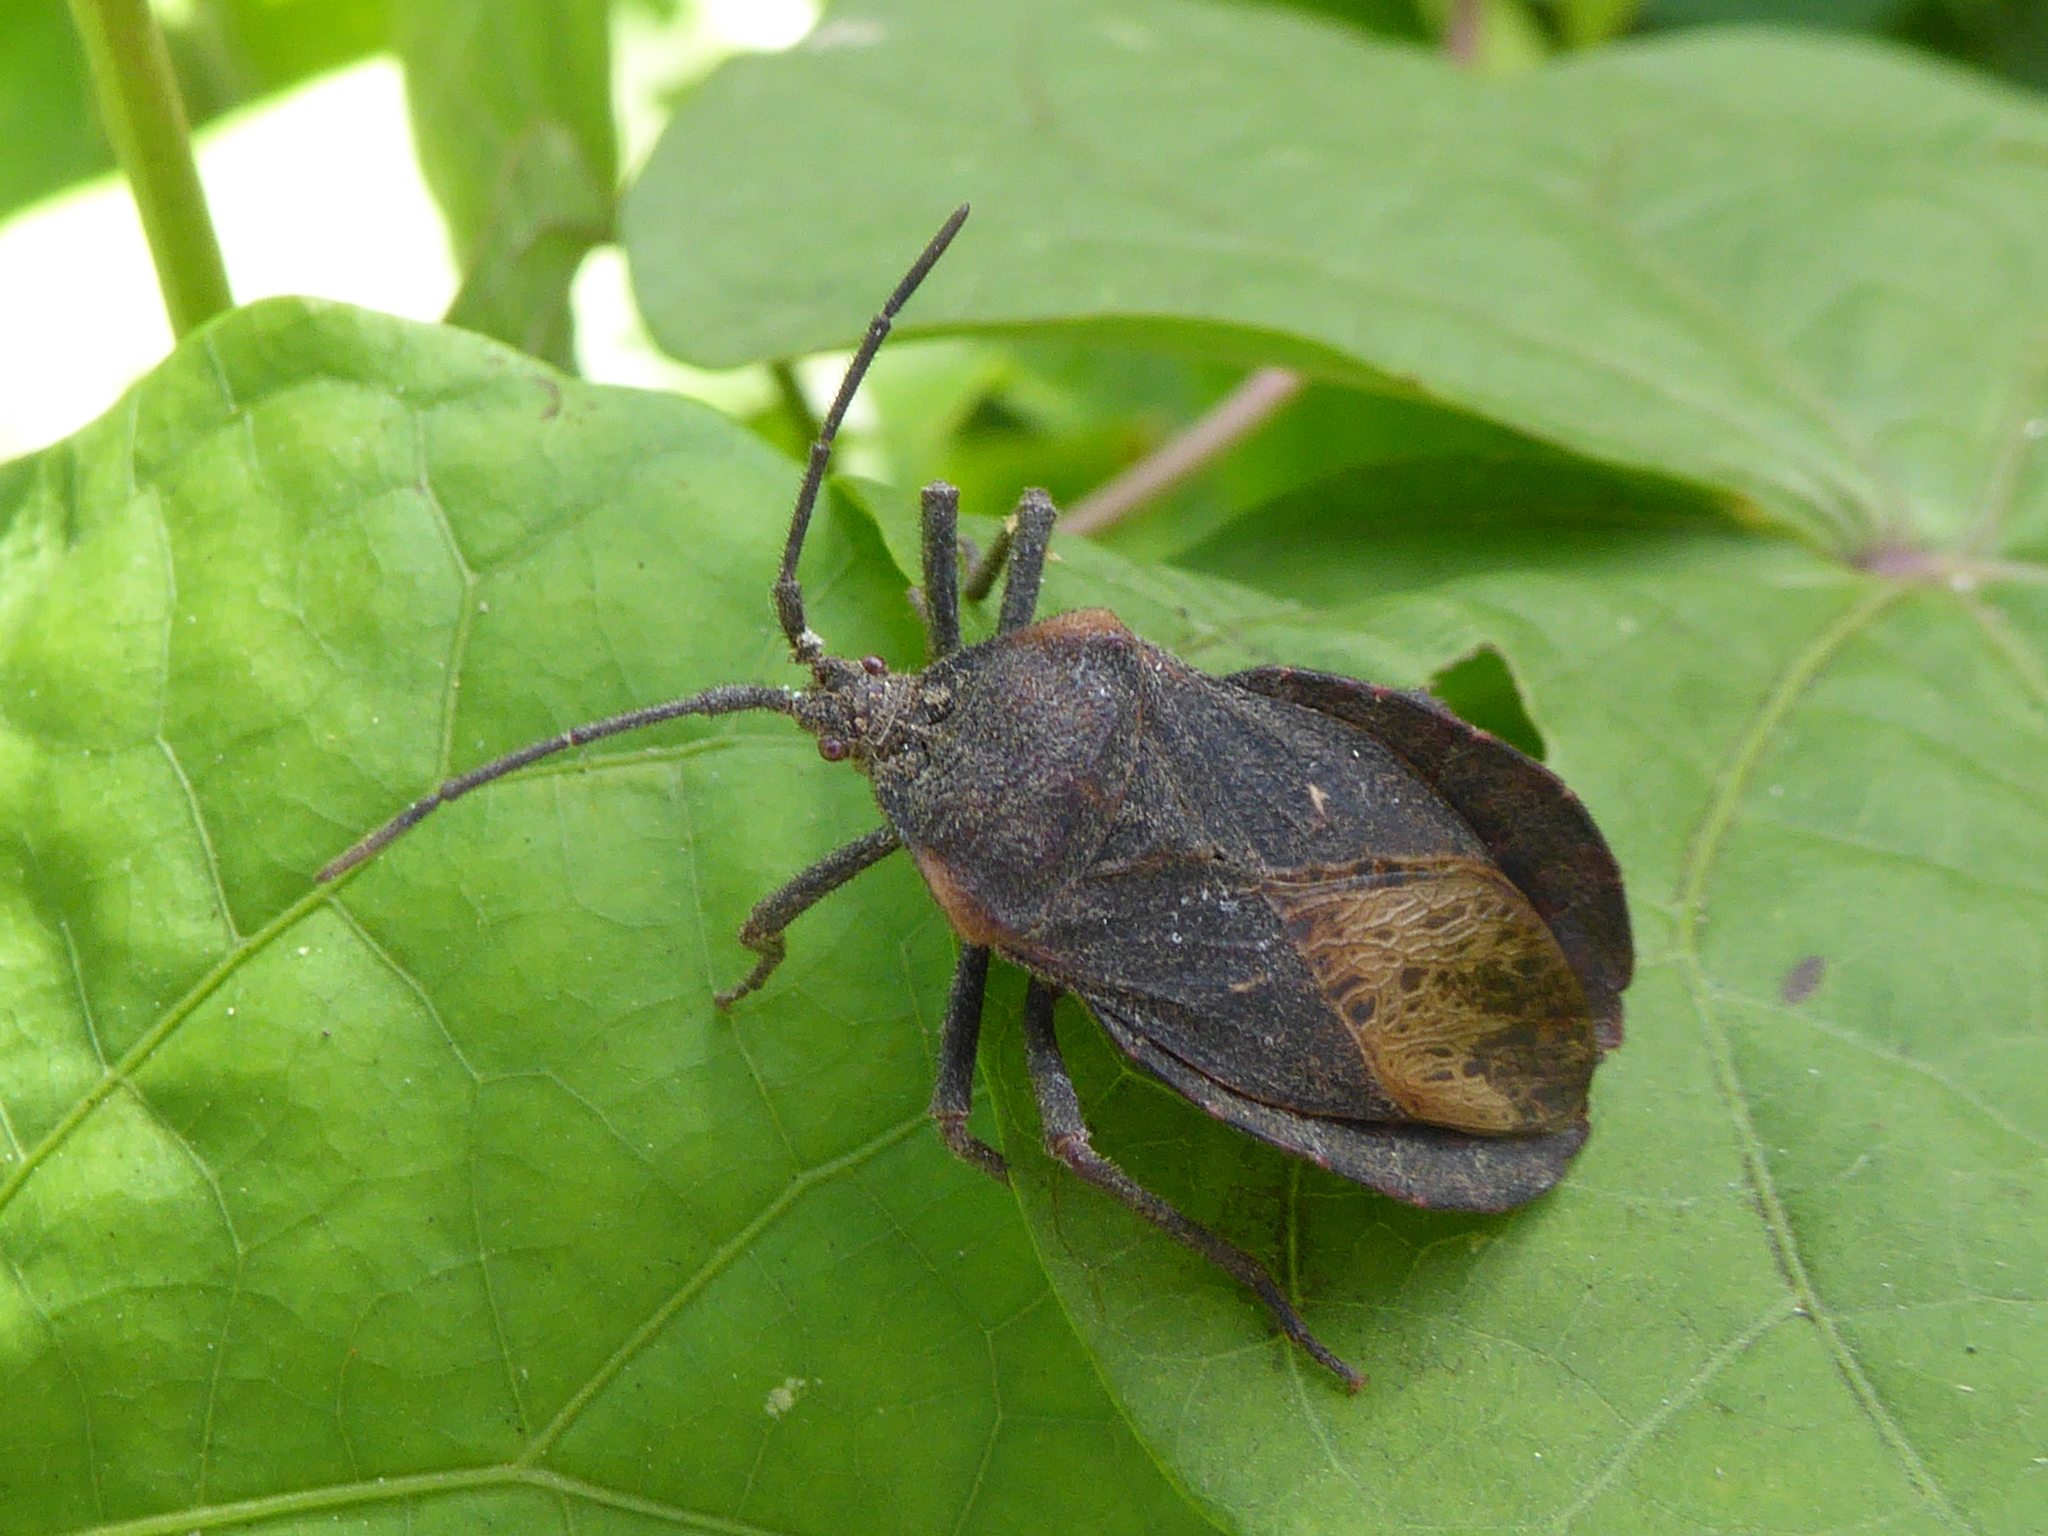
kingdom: Animalia
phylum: Arthropoda
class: Insecta
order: Hemiptera
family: Coreidae
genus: Spartocera
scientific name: Spartocera batatas
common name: Giant sweetpotato bug
